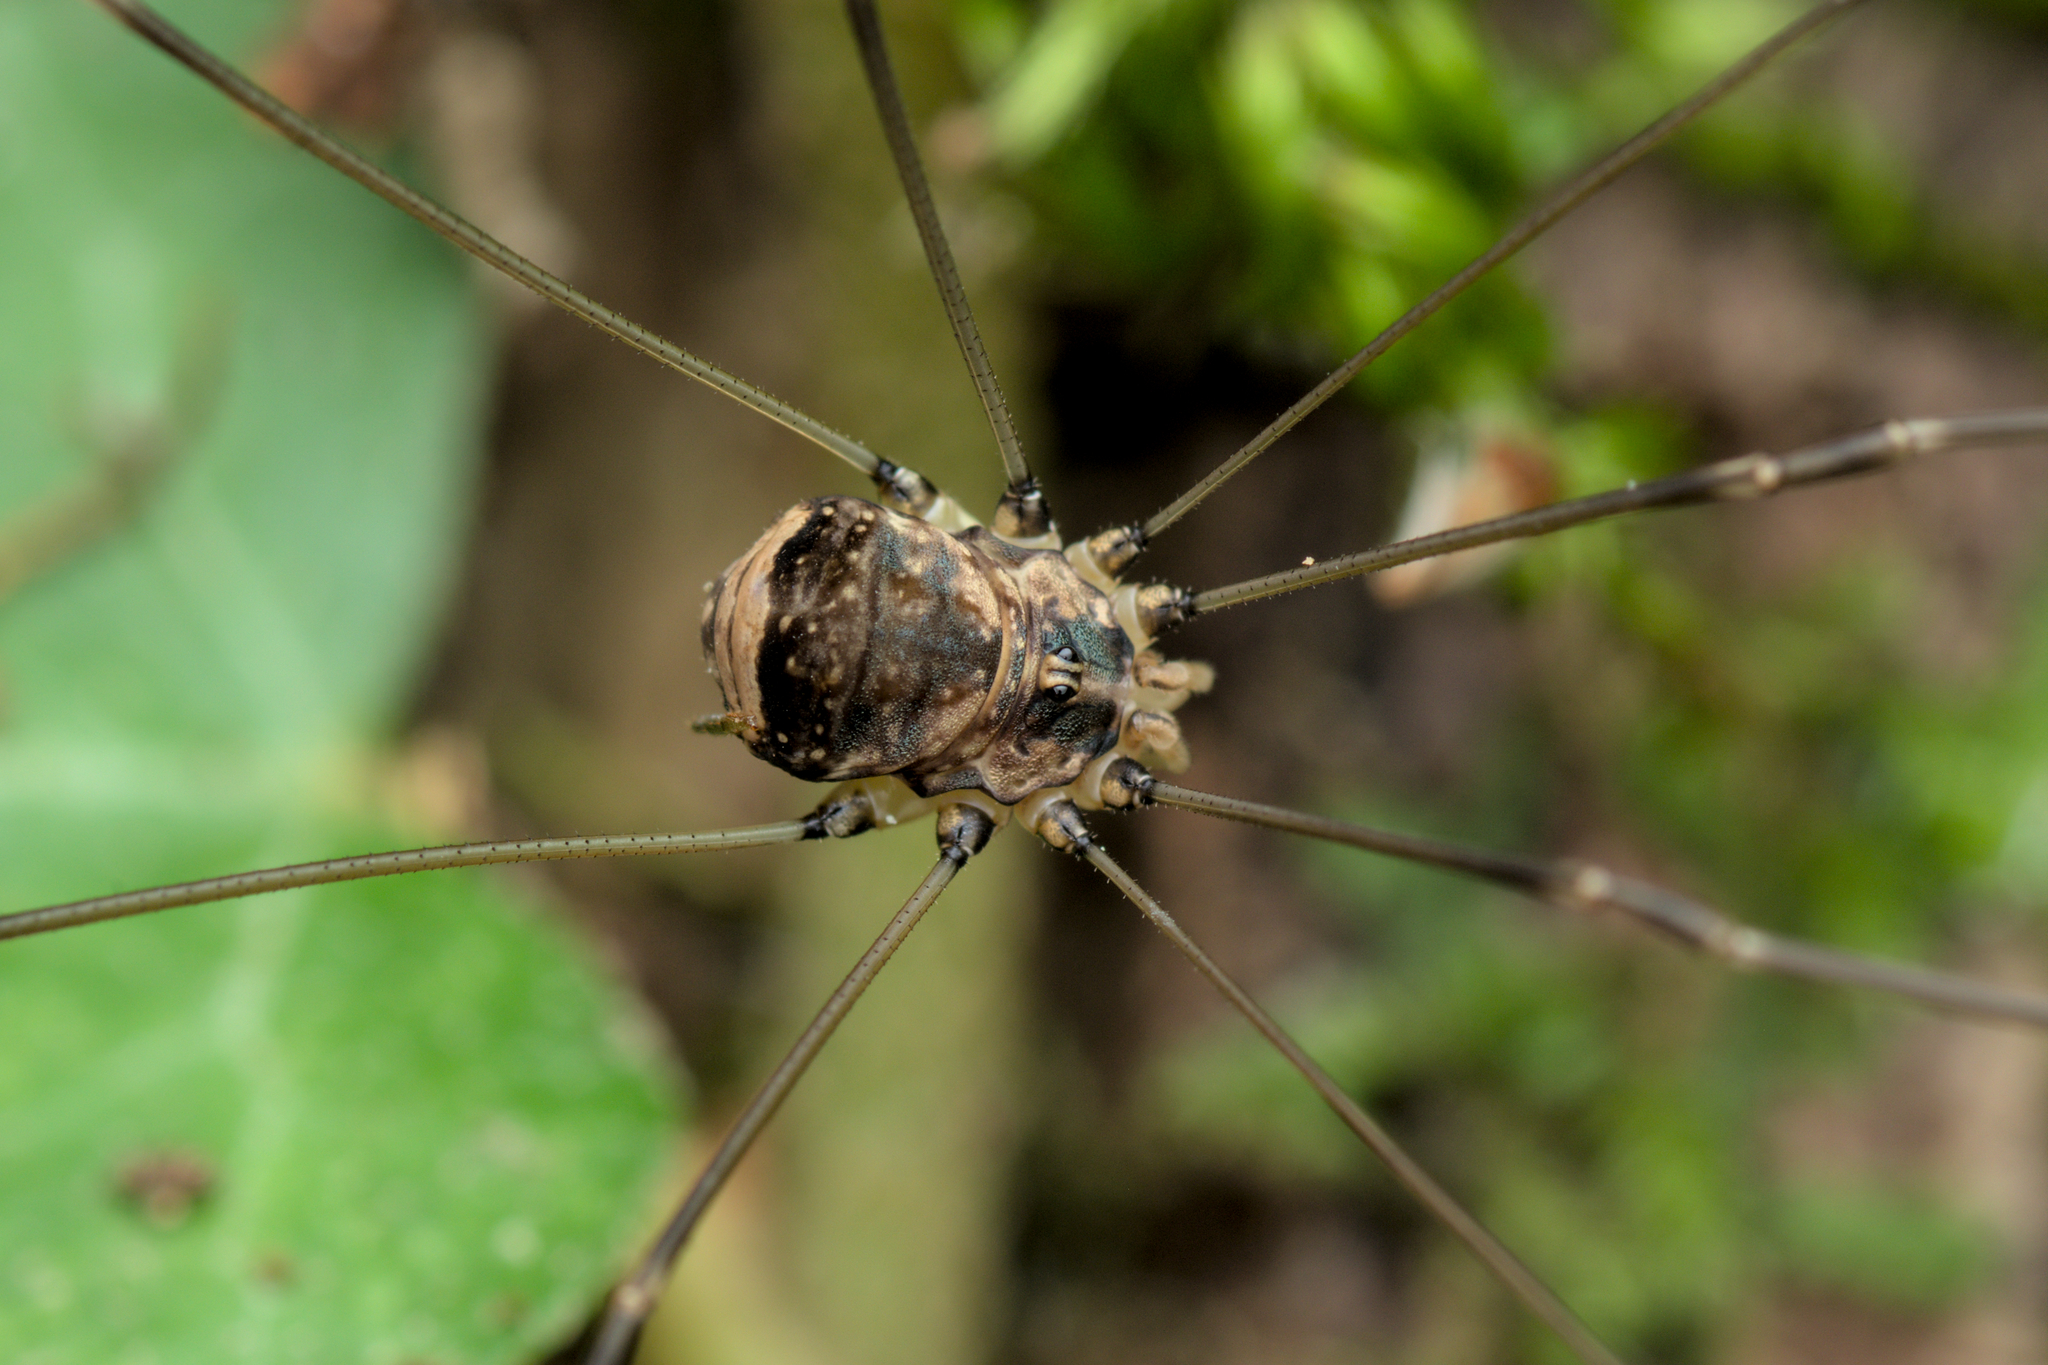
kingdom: Animalia
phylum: Arthropoda
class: Arachnida
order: Opiliones
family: Sclerosomatidae
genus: Leiobunum
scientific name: Leiobunum blackwalli
